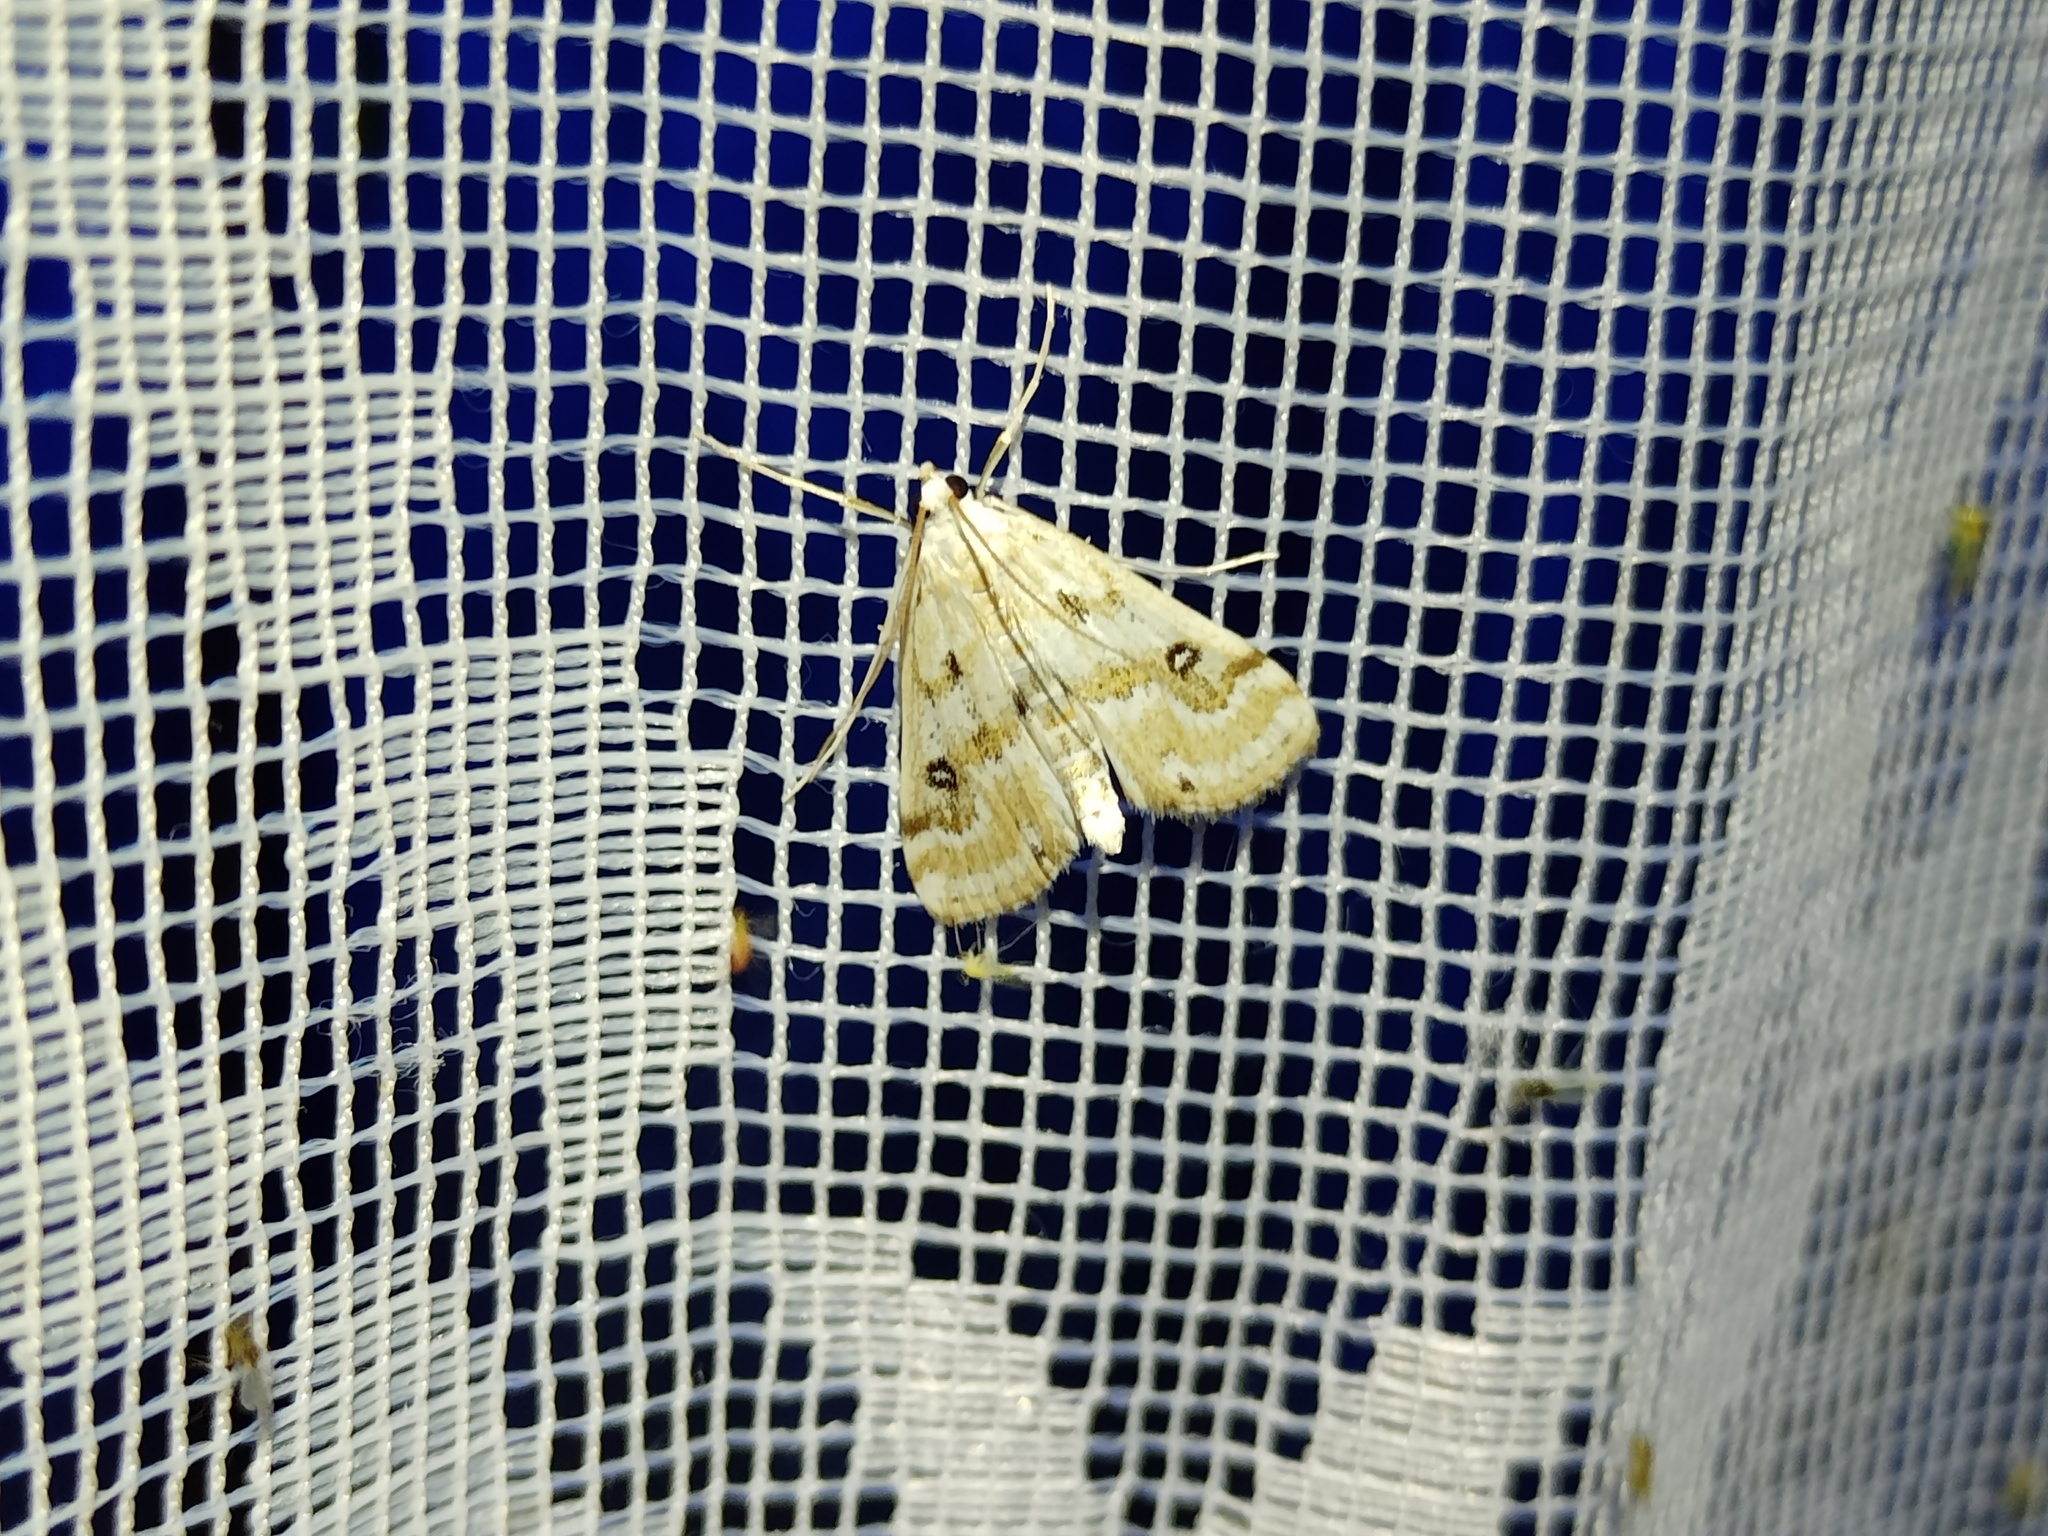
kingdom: Animalia
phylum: Arthropoda
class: Insecta
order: Lepidoptera
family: Crambidae
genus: Parapoynx
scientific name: Parapoynx stratiotata
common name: Ringed china-mark
